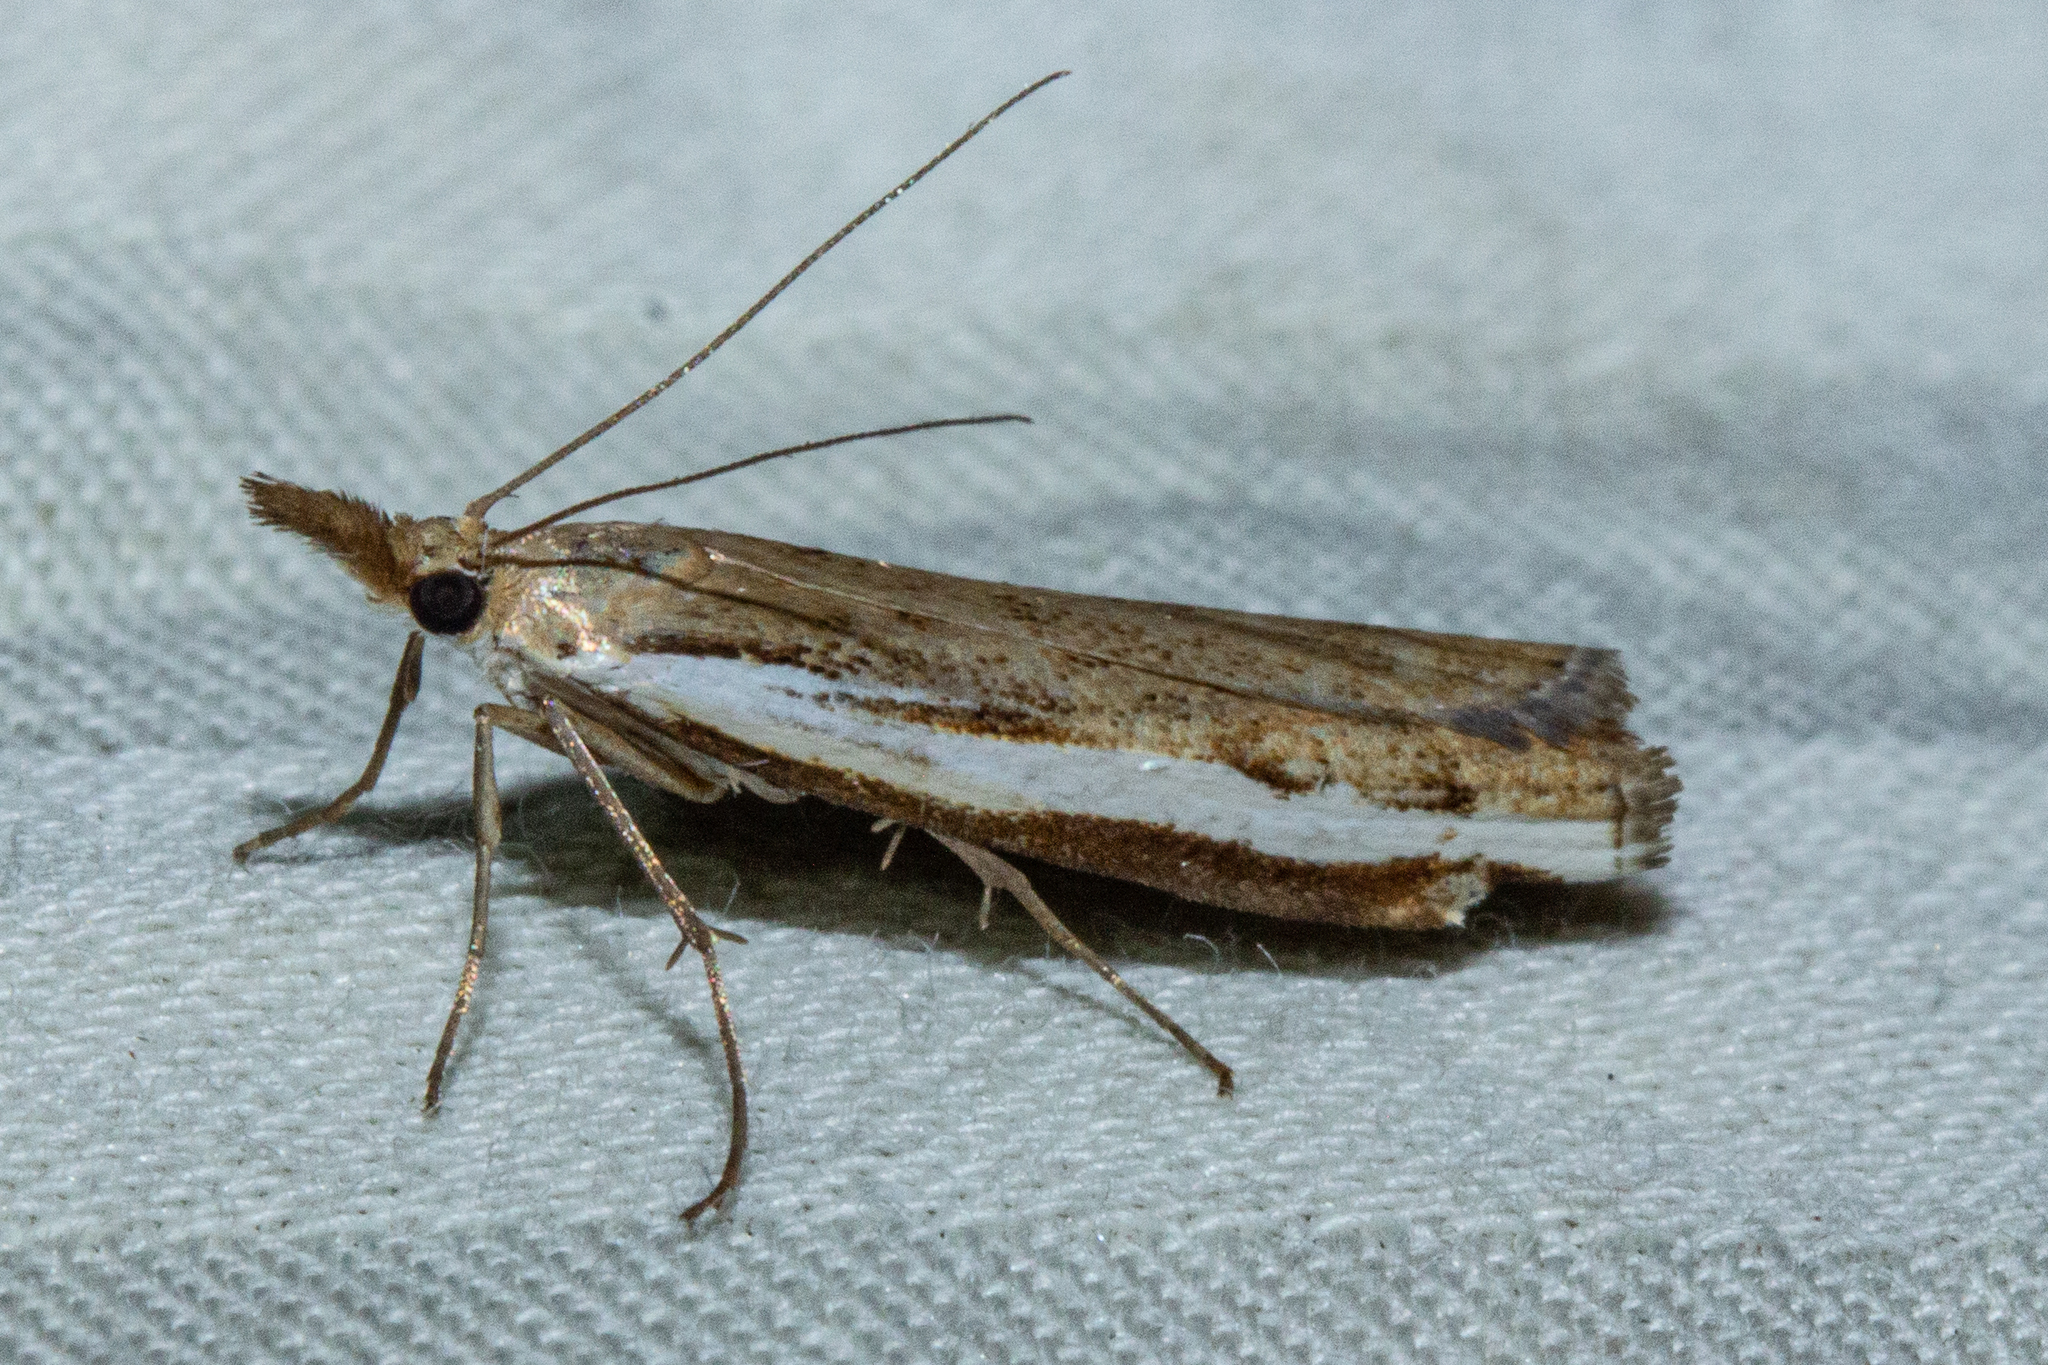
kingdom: Animalia
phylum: Arthropoda
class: Insecta
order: Lepidoptera
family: Crambidae
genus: Orocrambus
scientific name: Orocrambus flexuosellus
